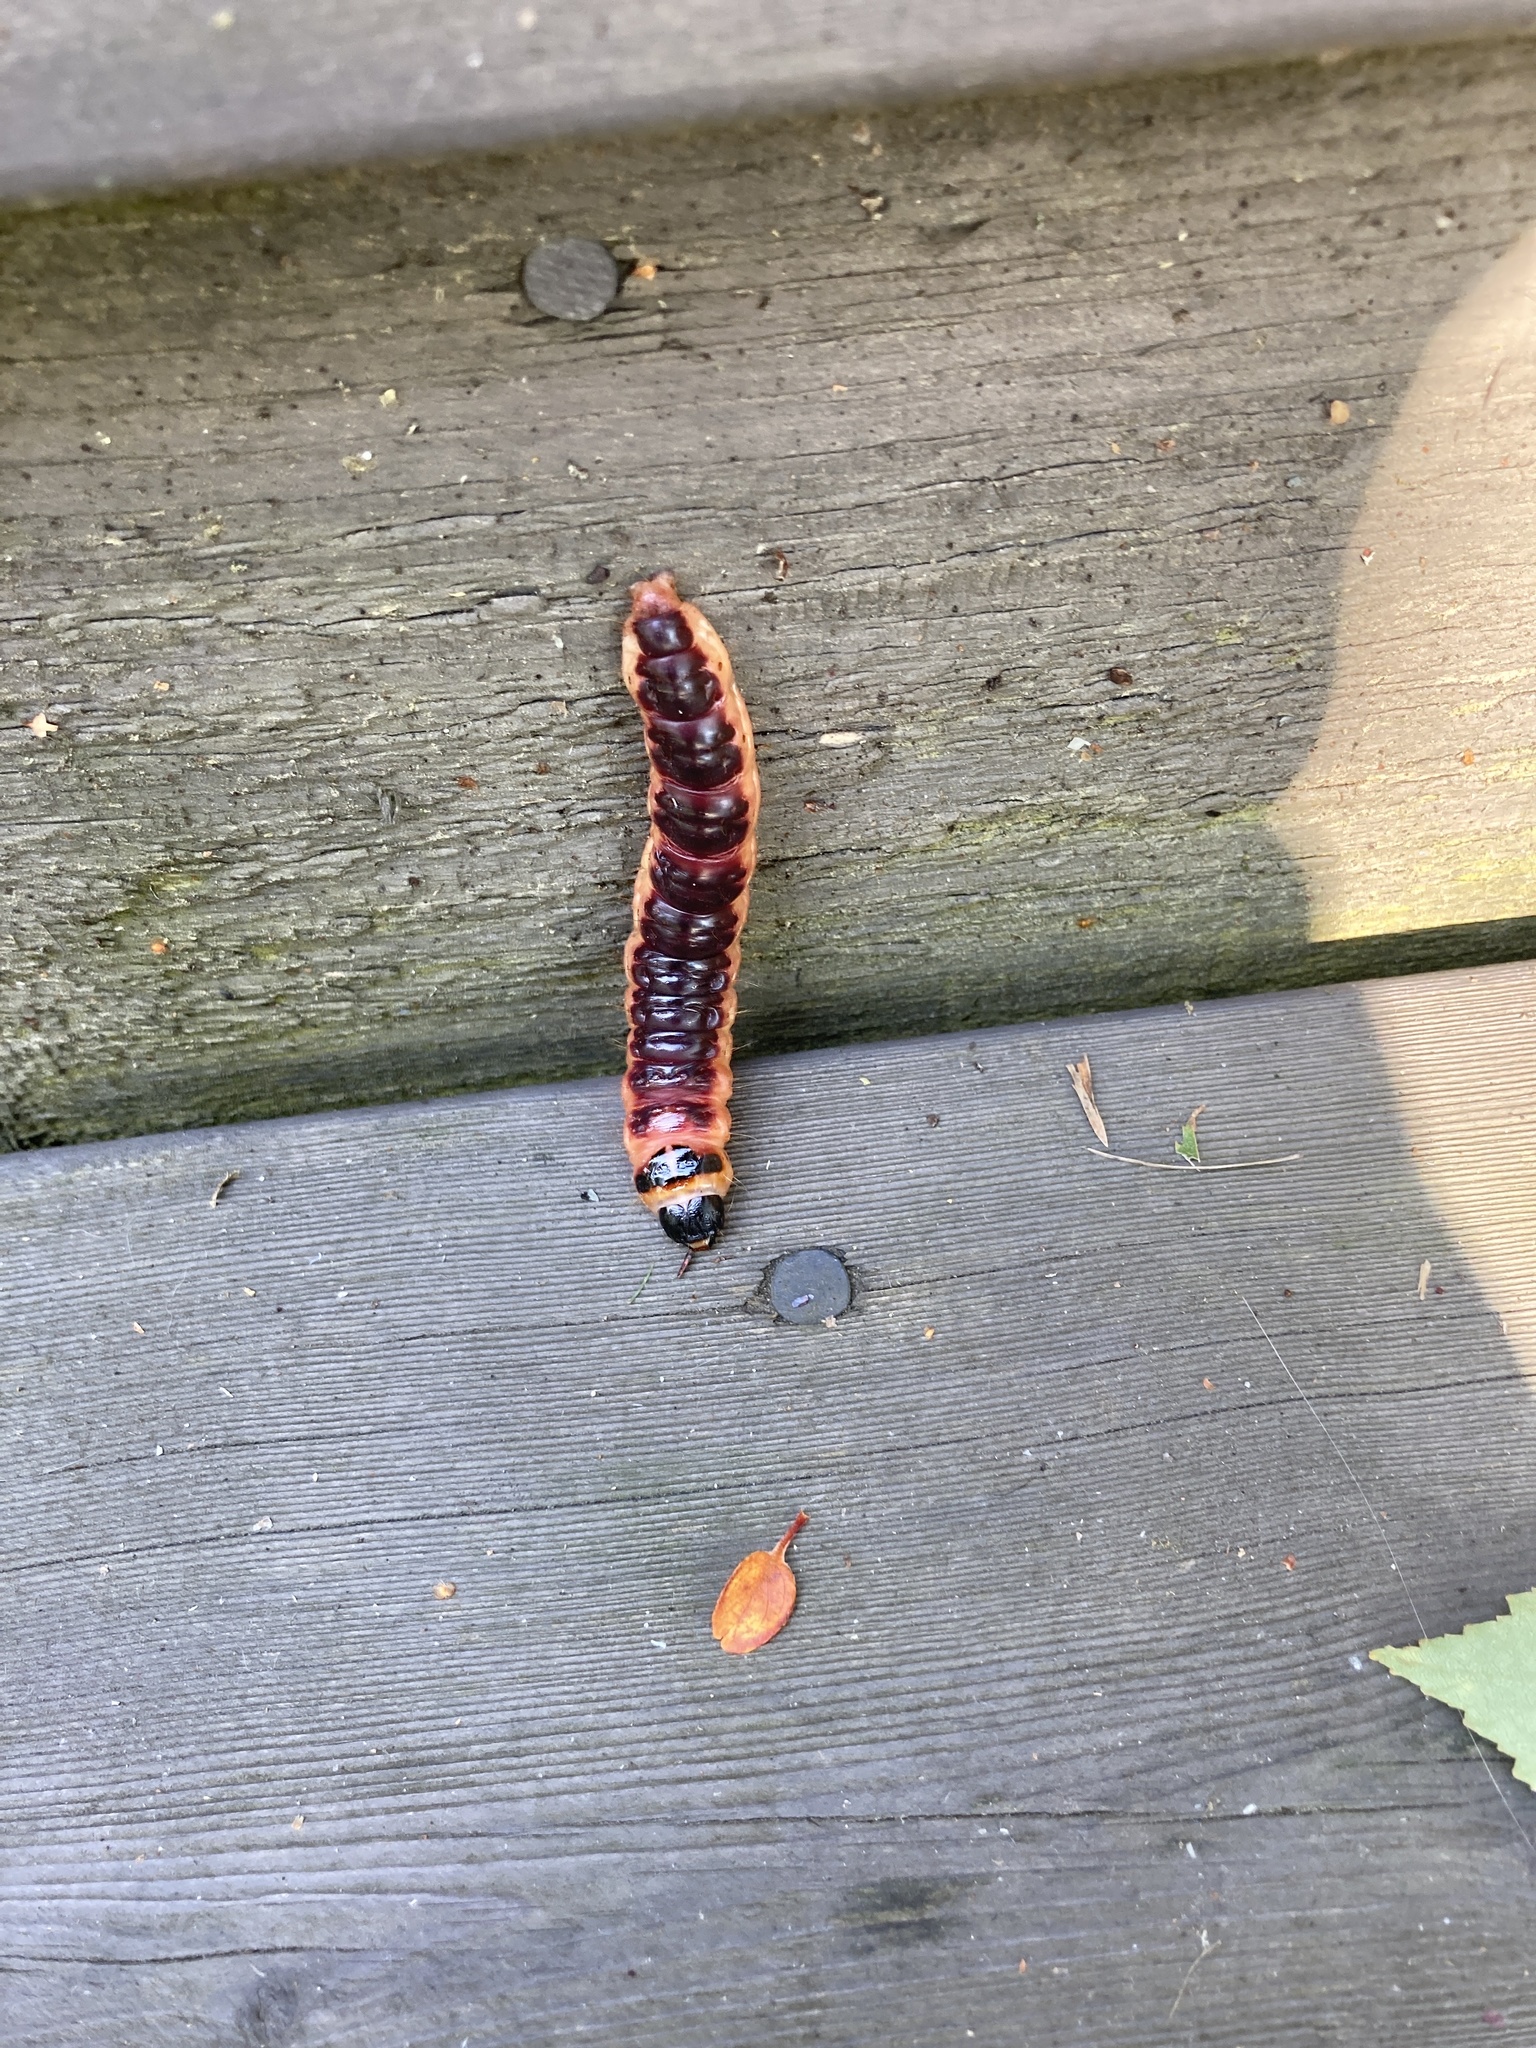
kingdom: Animalia
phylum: Arthropoda
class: Insecta
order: Lepidoptera
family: Cossidae
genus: Cossus
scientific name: Cossus cossus
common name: Goat moth
